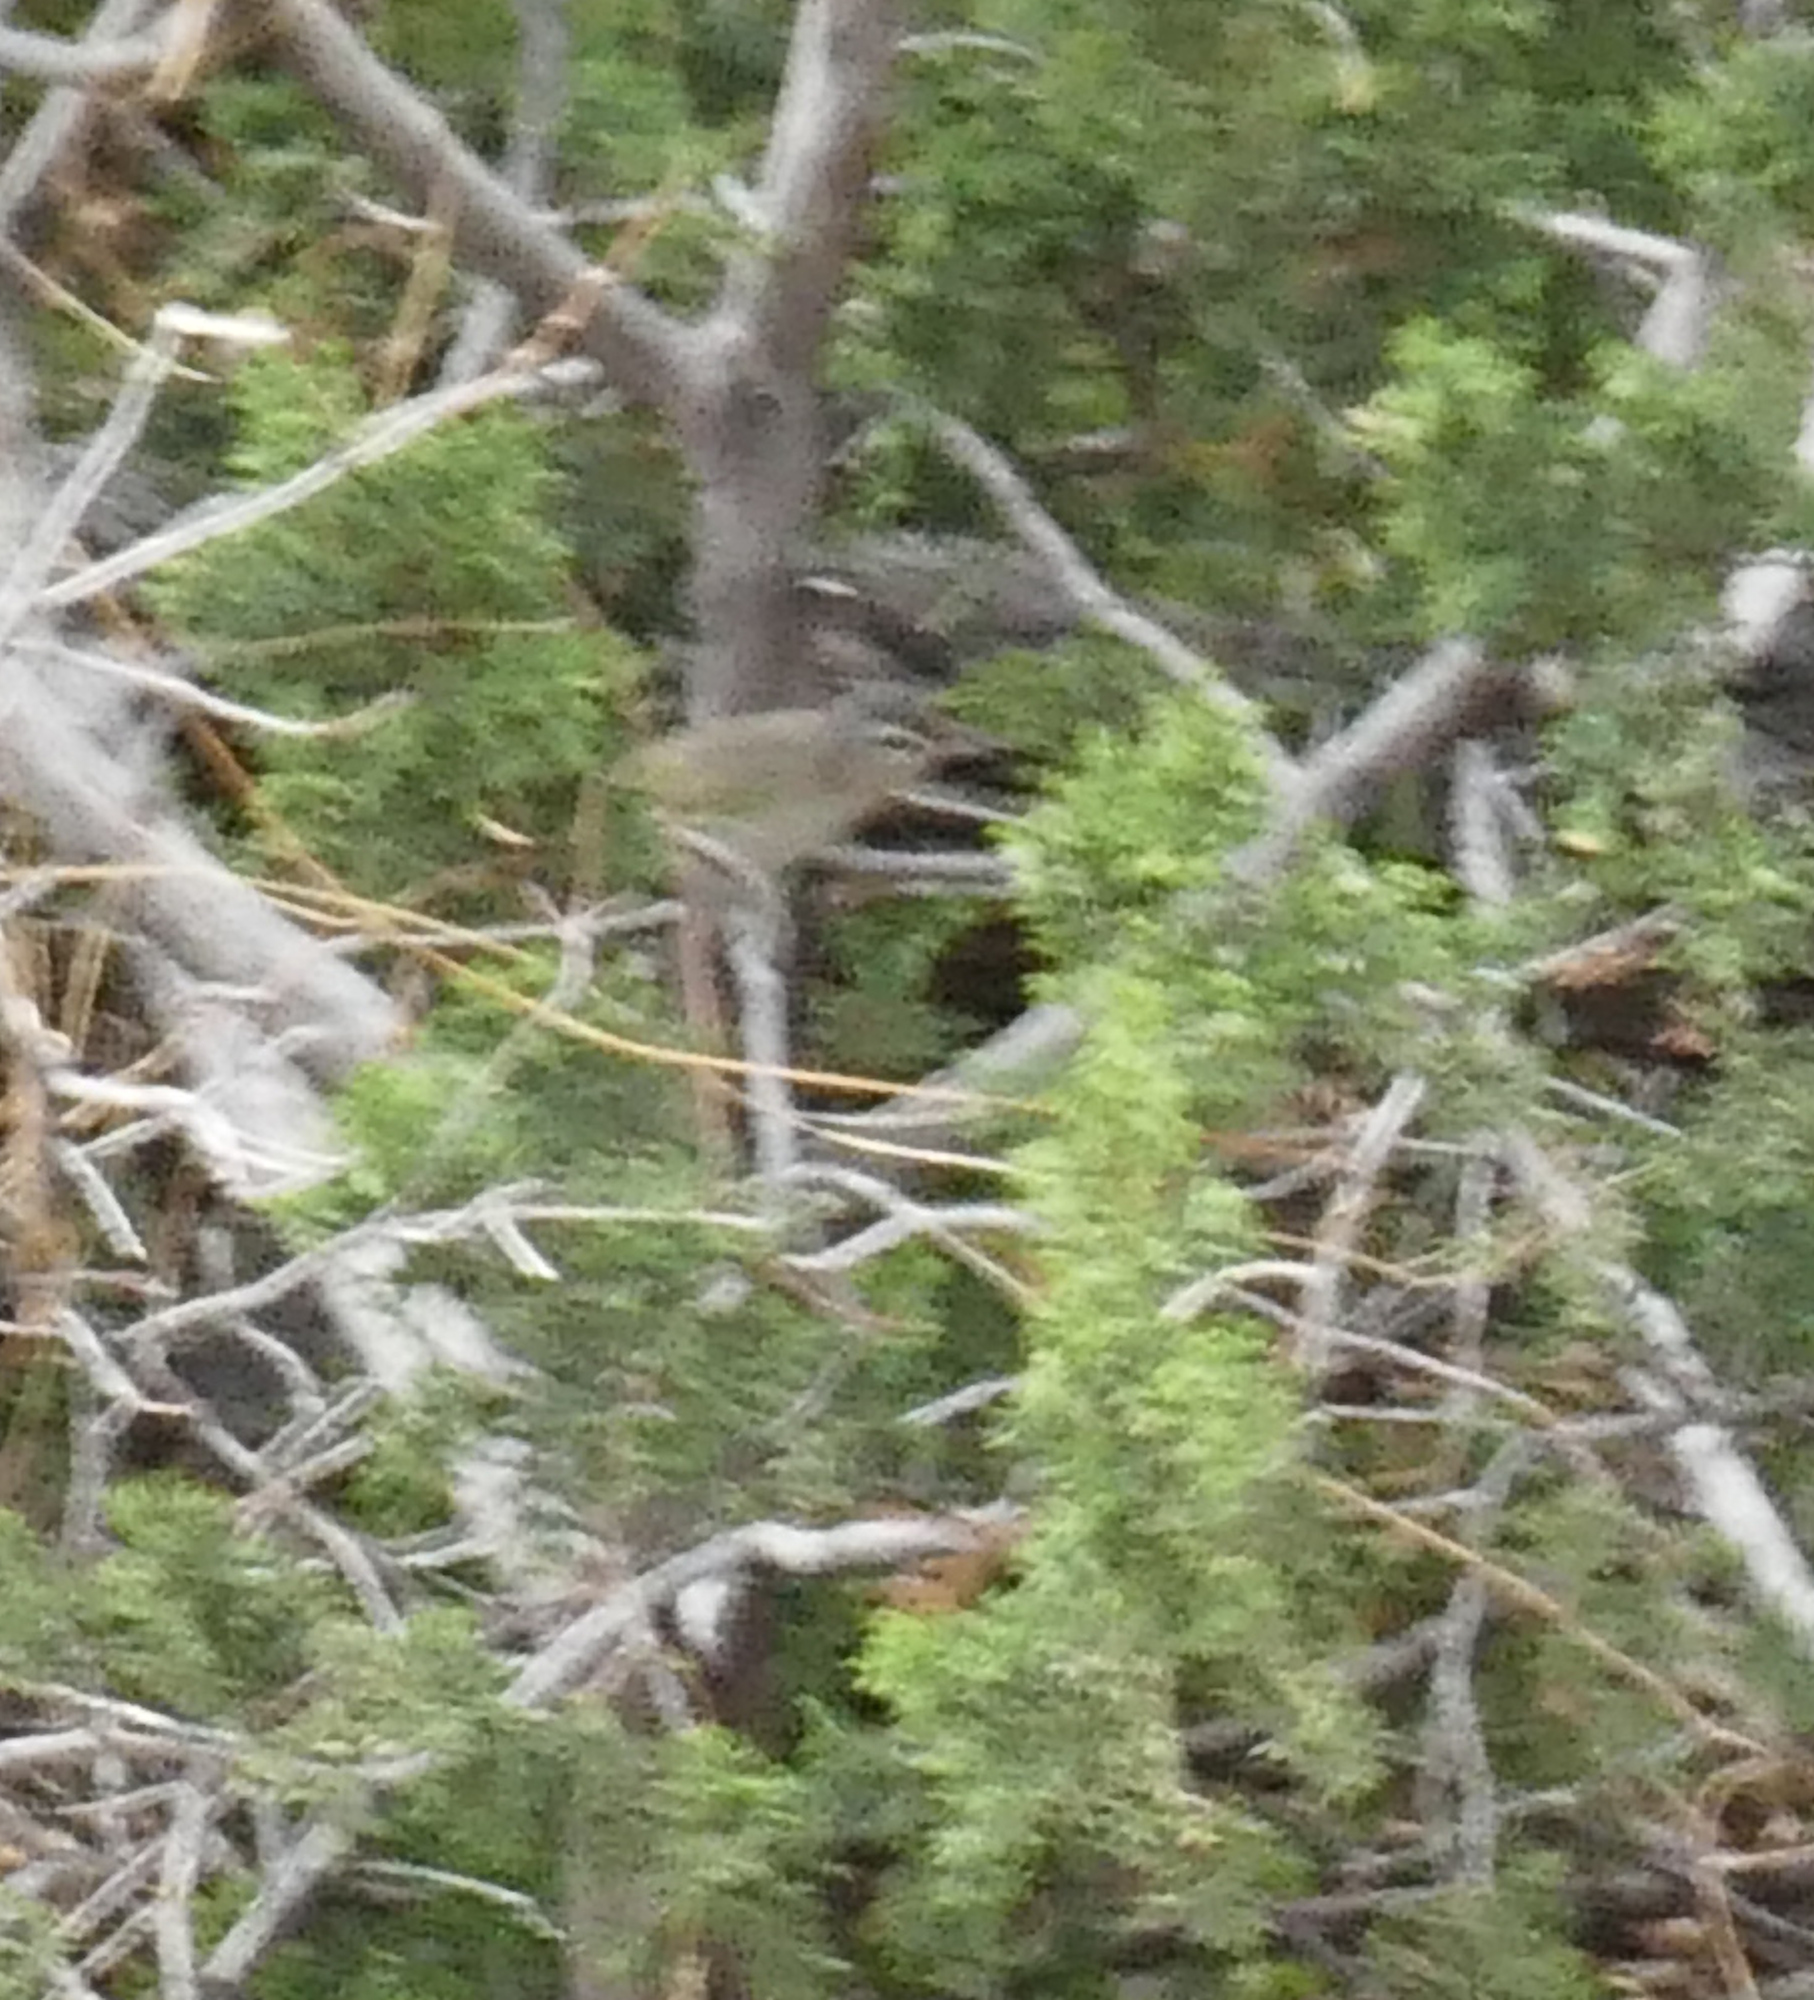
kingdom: Animalia
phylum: Chordata
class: Aves
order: Passeriformes
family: Vireonidae
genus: Vireo
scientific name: Vireo gilvus
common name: Warbling vireo
